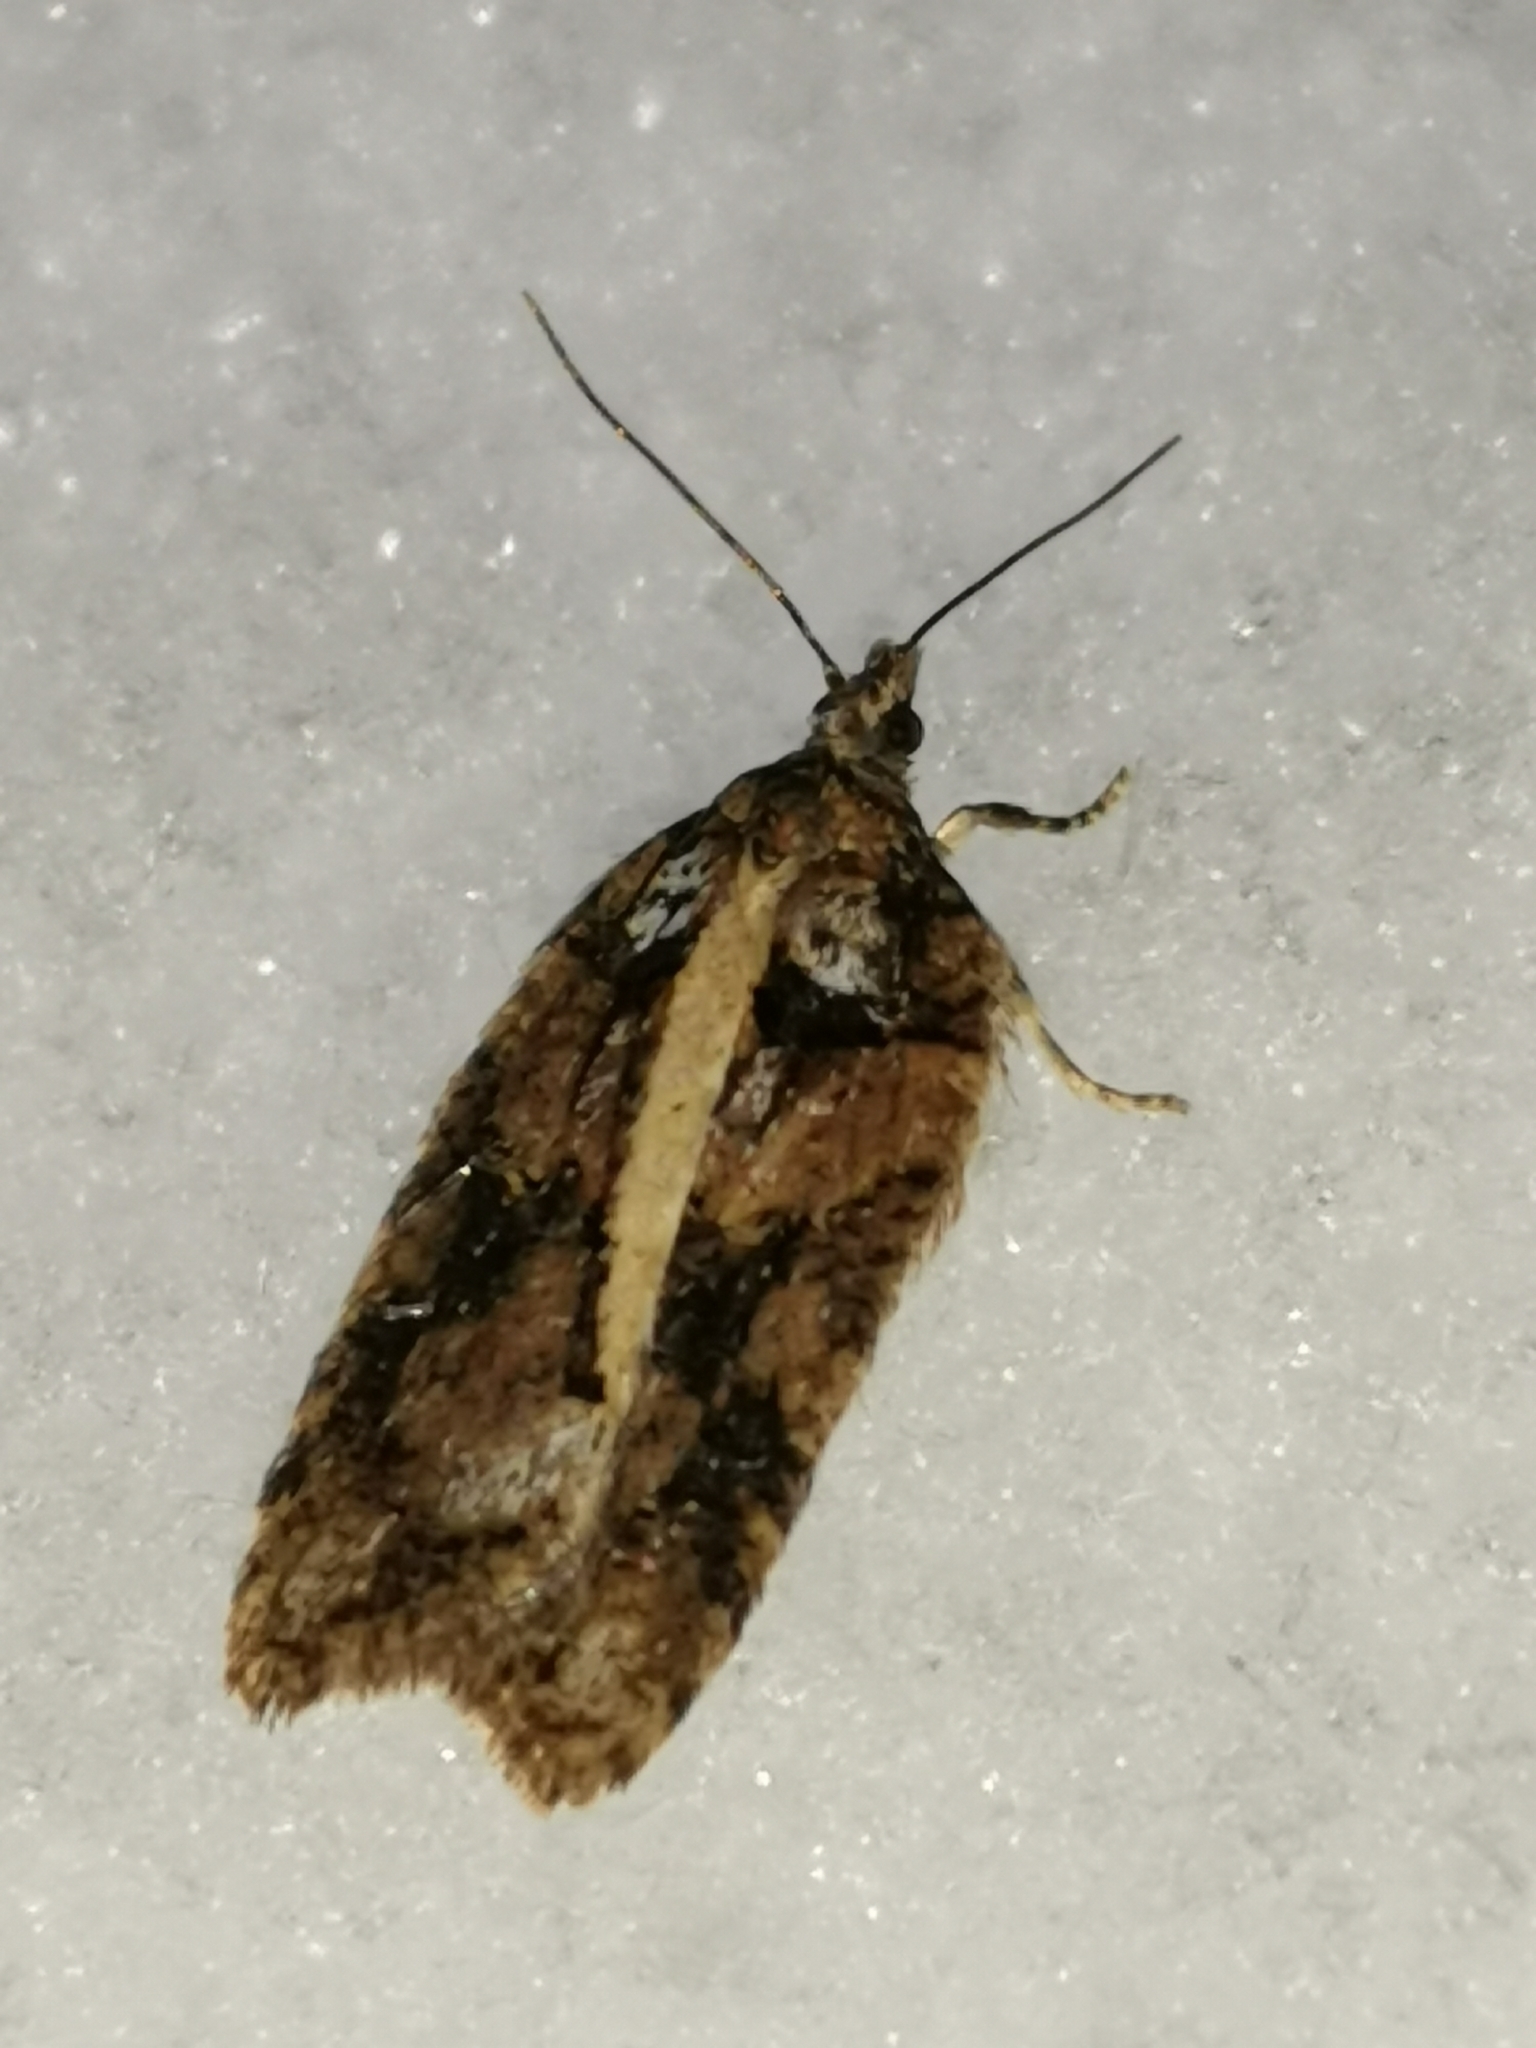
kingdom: Animalia
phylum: Arthropoda
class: Insecta
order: Lepidoptera
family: Tortricidae
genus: Acleris
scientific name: Acleris abietana
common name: Perth button
